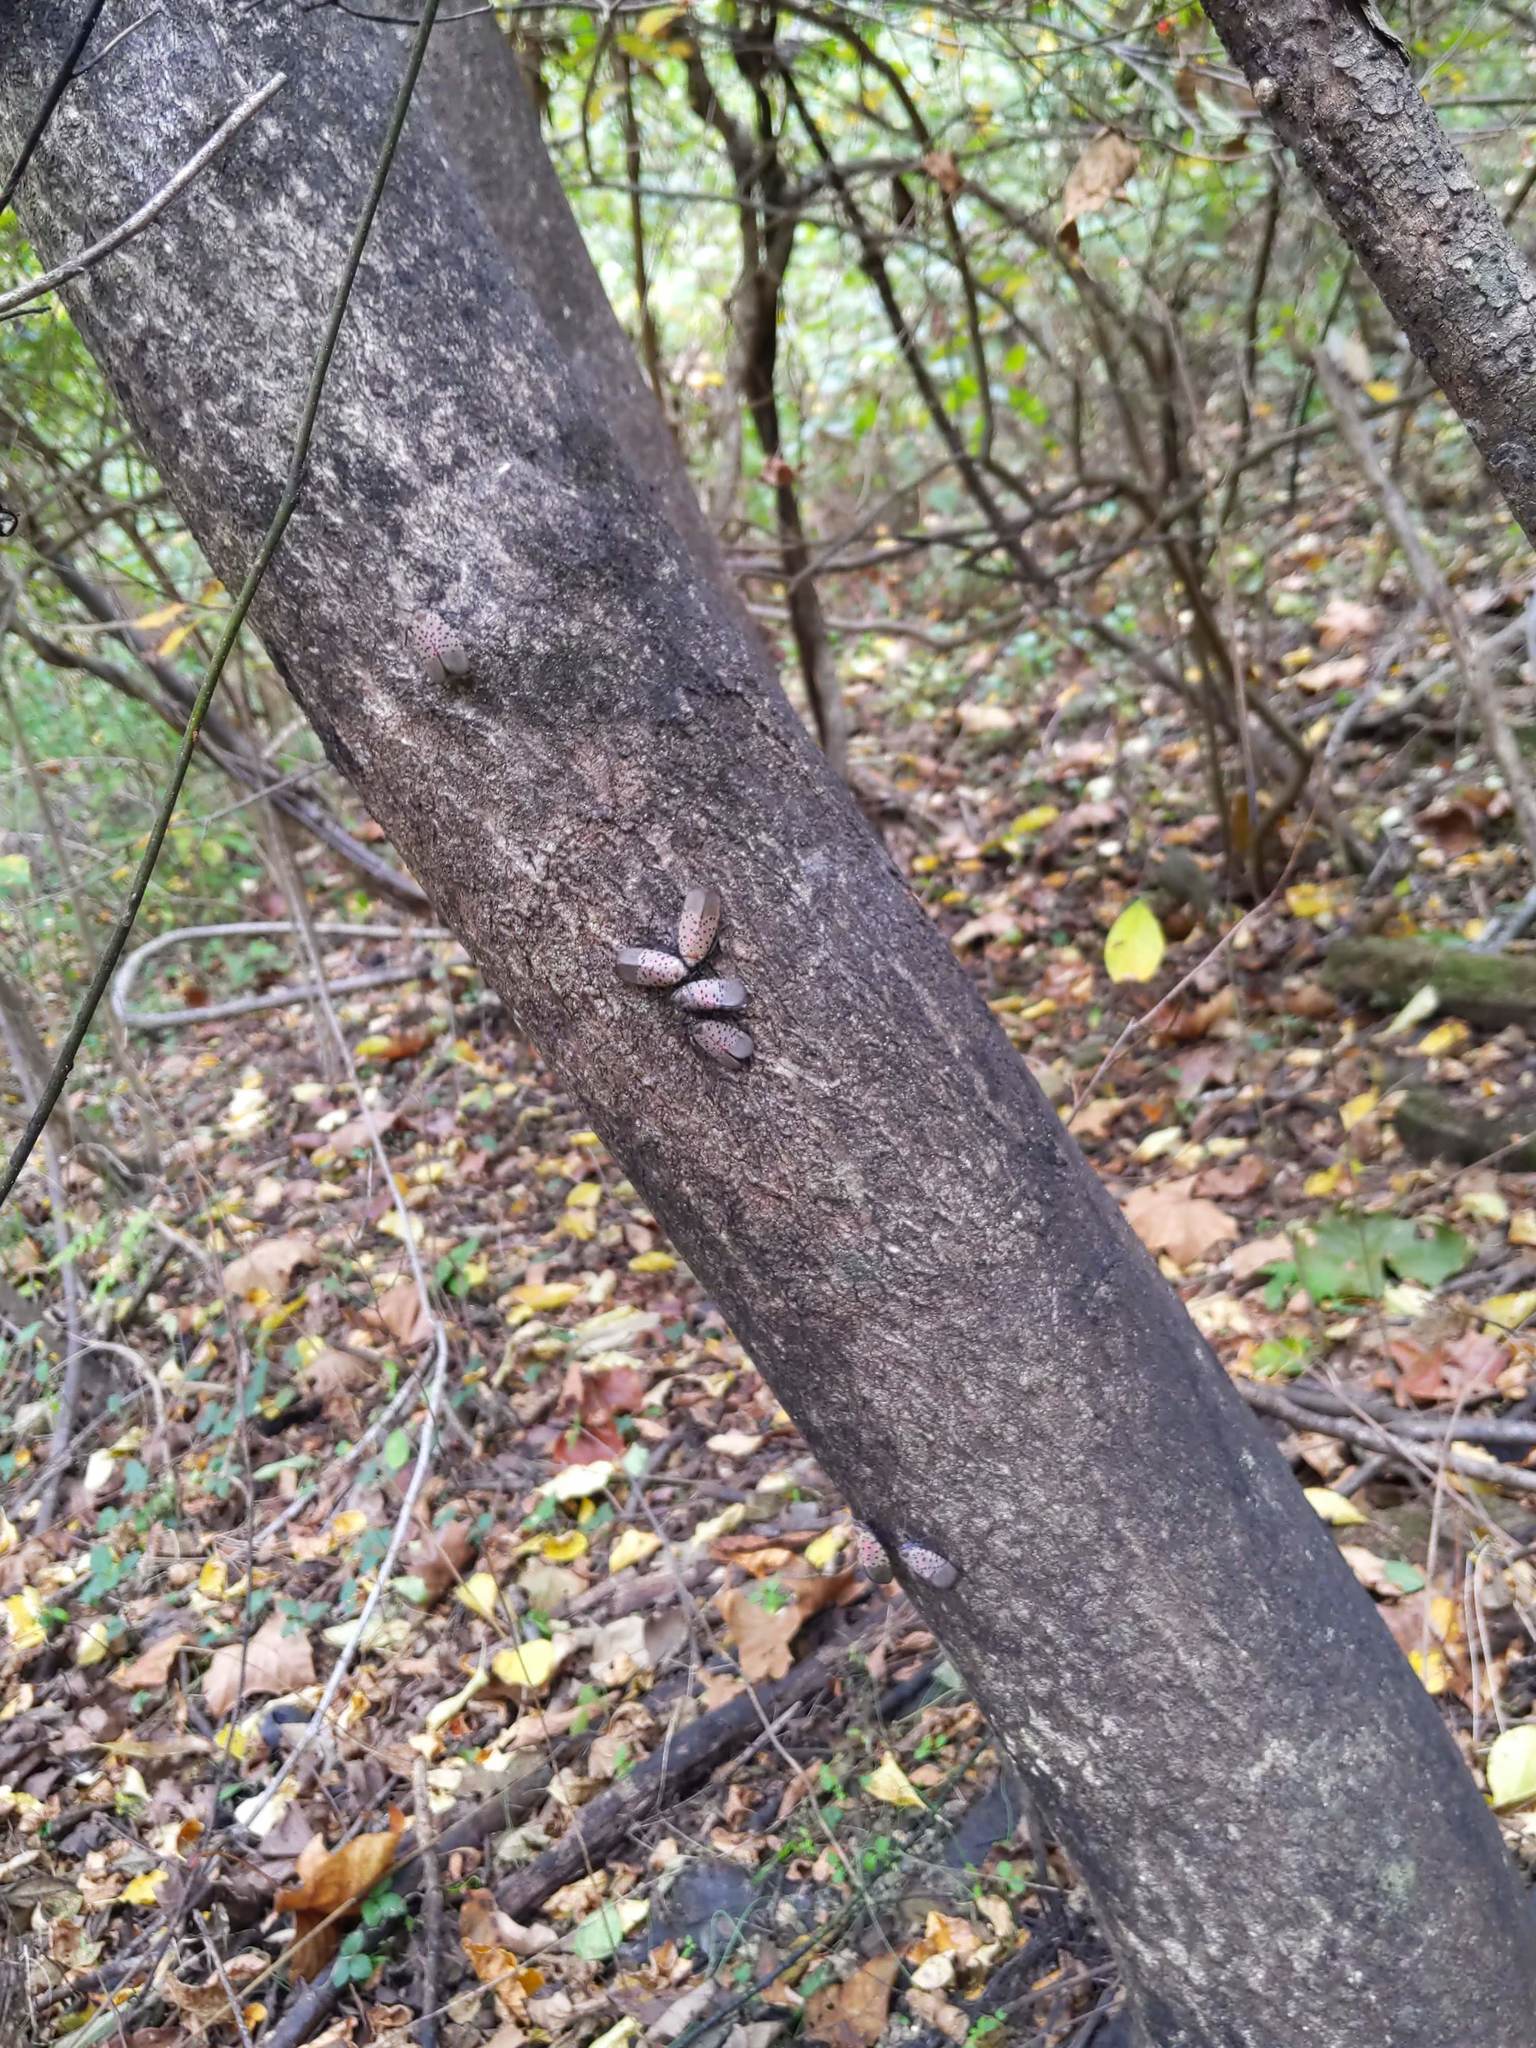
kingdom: Animalia
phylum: Arthropoda
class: Insecta
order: Hemiptera
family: Fulgoridae
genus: Lycorma
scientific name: Lycorma delicatula
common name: Spotted lanternfly
